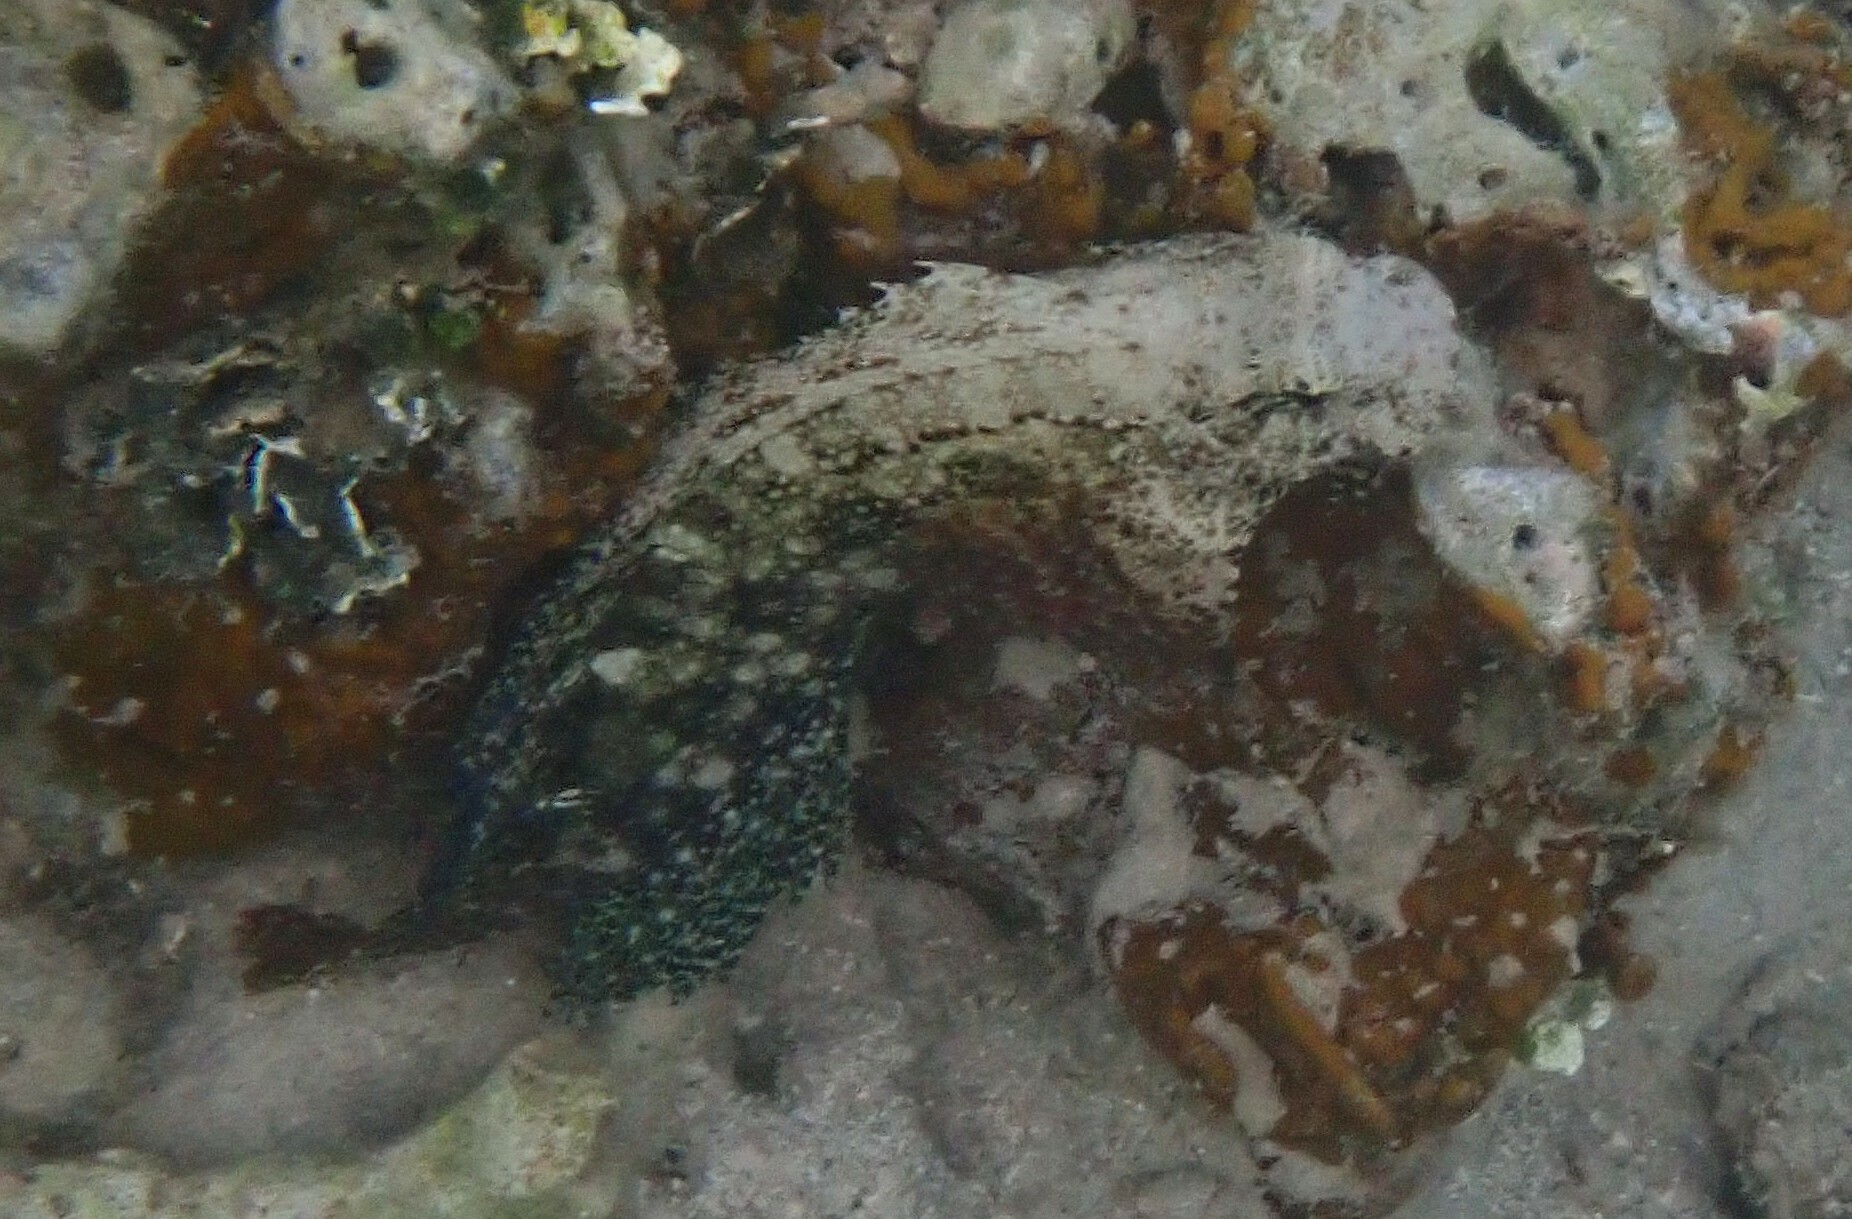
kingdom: Animalia
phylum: Chordata
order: Perciformes
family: Blenniidae
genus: Salarias
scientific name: Salarias ceramensis
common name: Seram blenny
